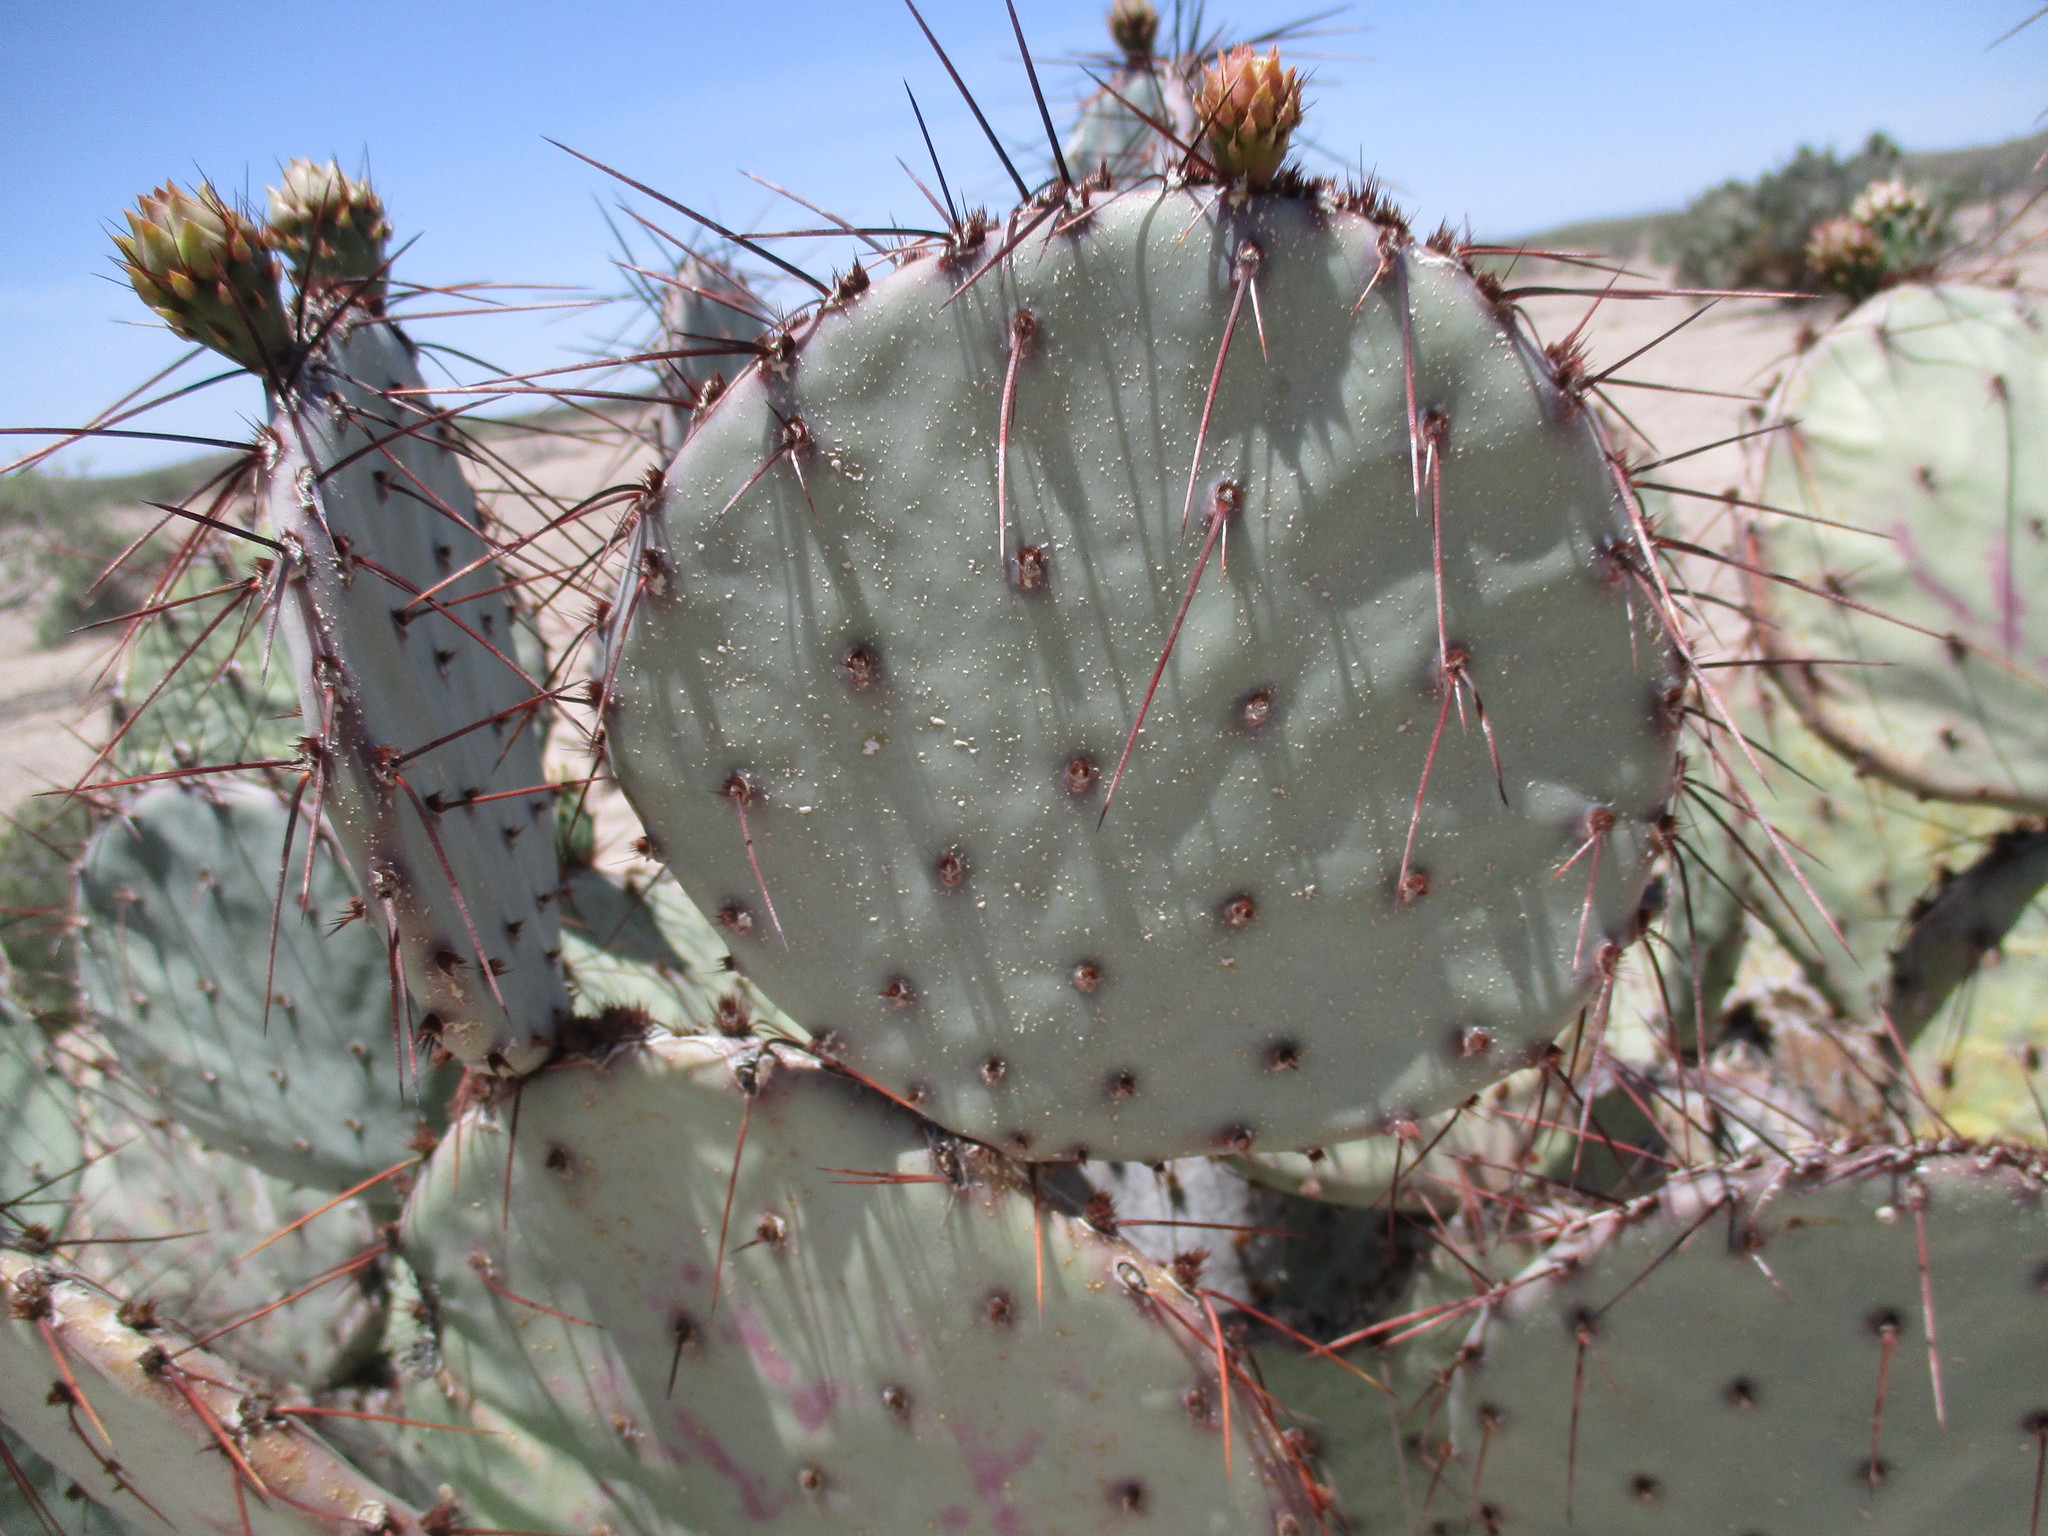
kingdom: Plantae
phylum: Tracheophyta
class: Magnoliopsida
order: Caryophyllales
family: Cactaceae
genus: Opuntia
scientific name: Opuntia macrocentra
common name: Purple prickly-pear
